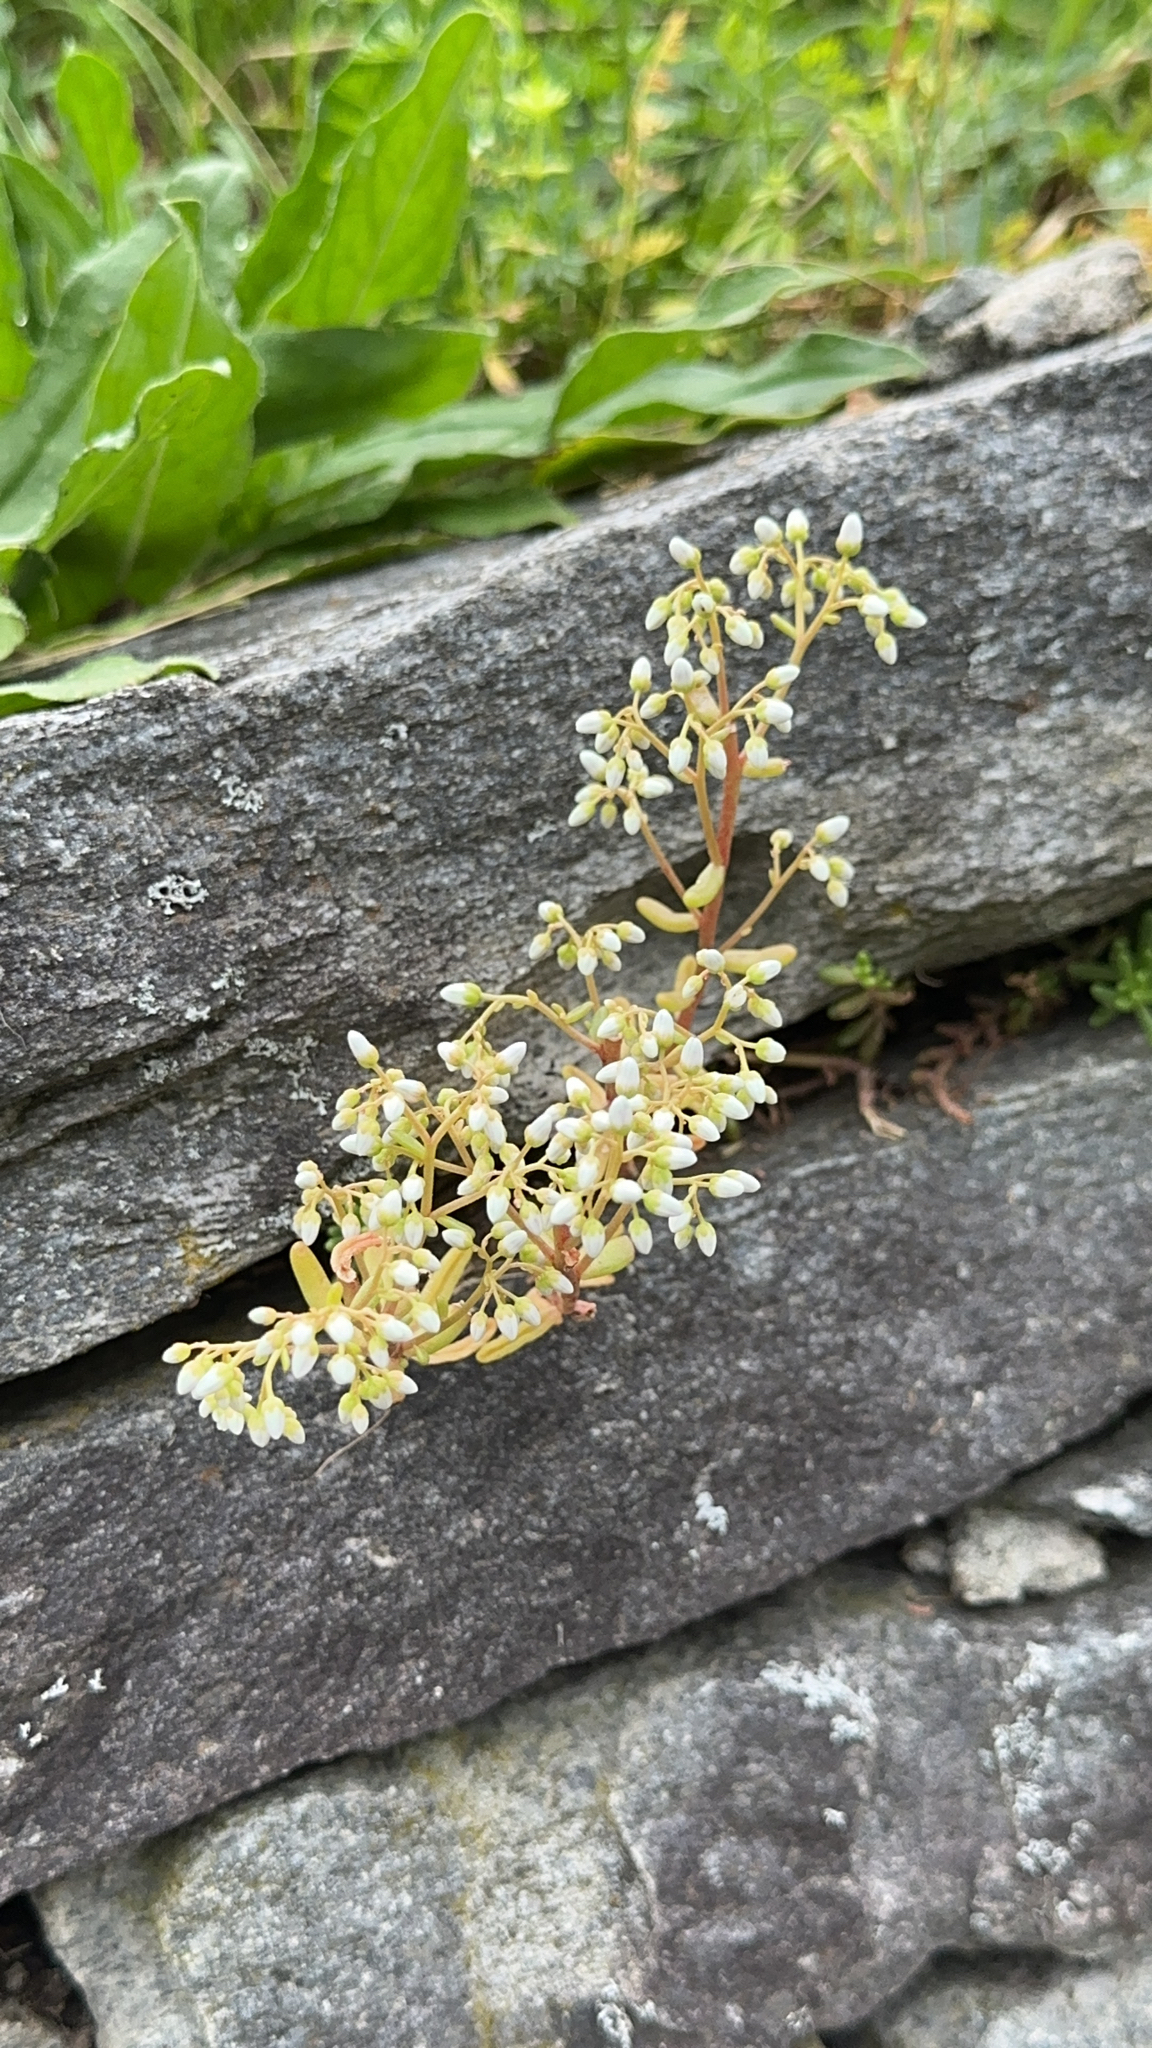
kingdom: Plantae
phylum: Tracheophyta
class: Magnoliopsida
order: Saxifragales
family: Crassulaceae
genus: Sedum
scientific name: Sedum album
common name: White stonecrop
